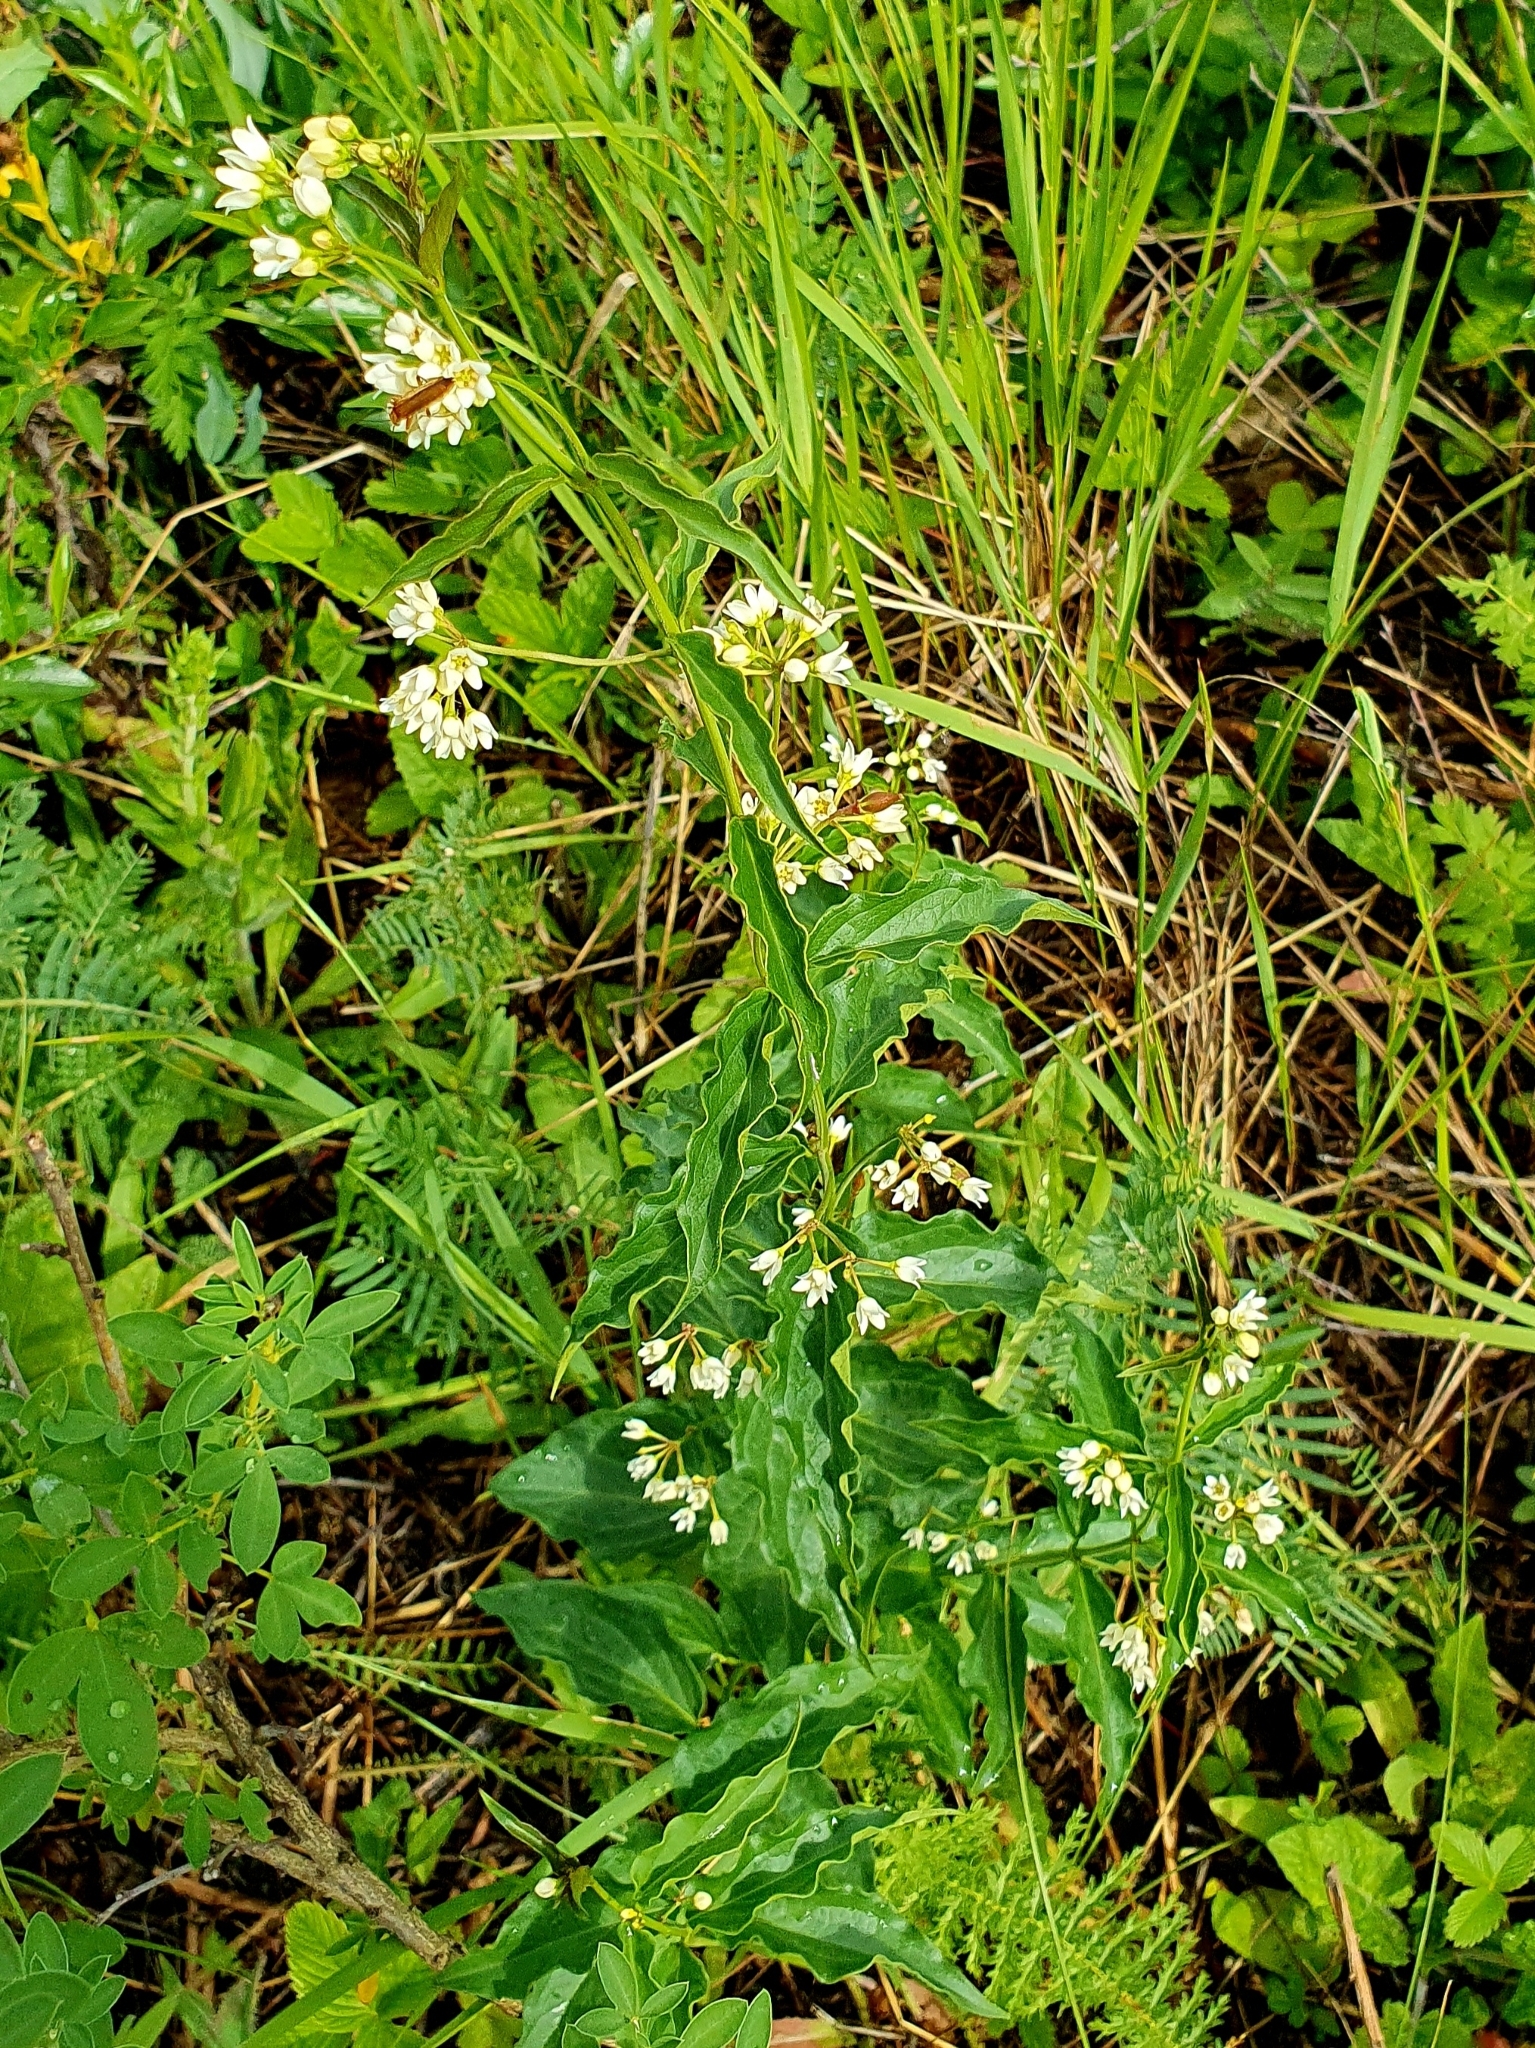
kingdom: Plantae
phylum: Tracheophyta
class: Magnoliopsida
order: Gentianales
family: Apocynaceae
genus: Vincetoxicum
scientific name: Vincetoxicum hirundinaria
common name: White swallowwort
